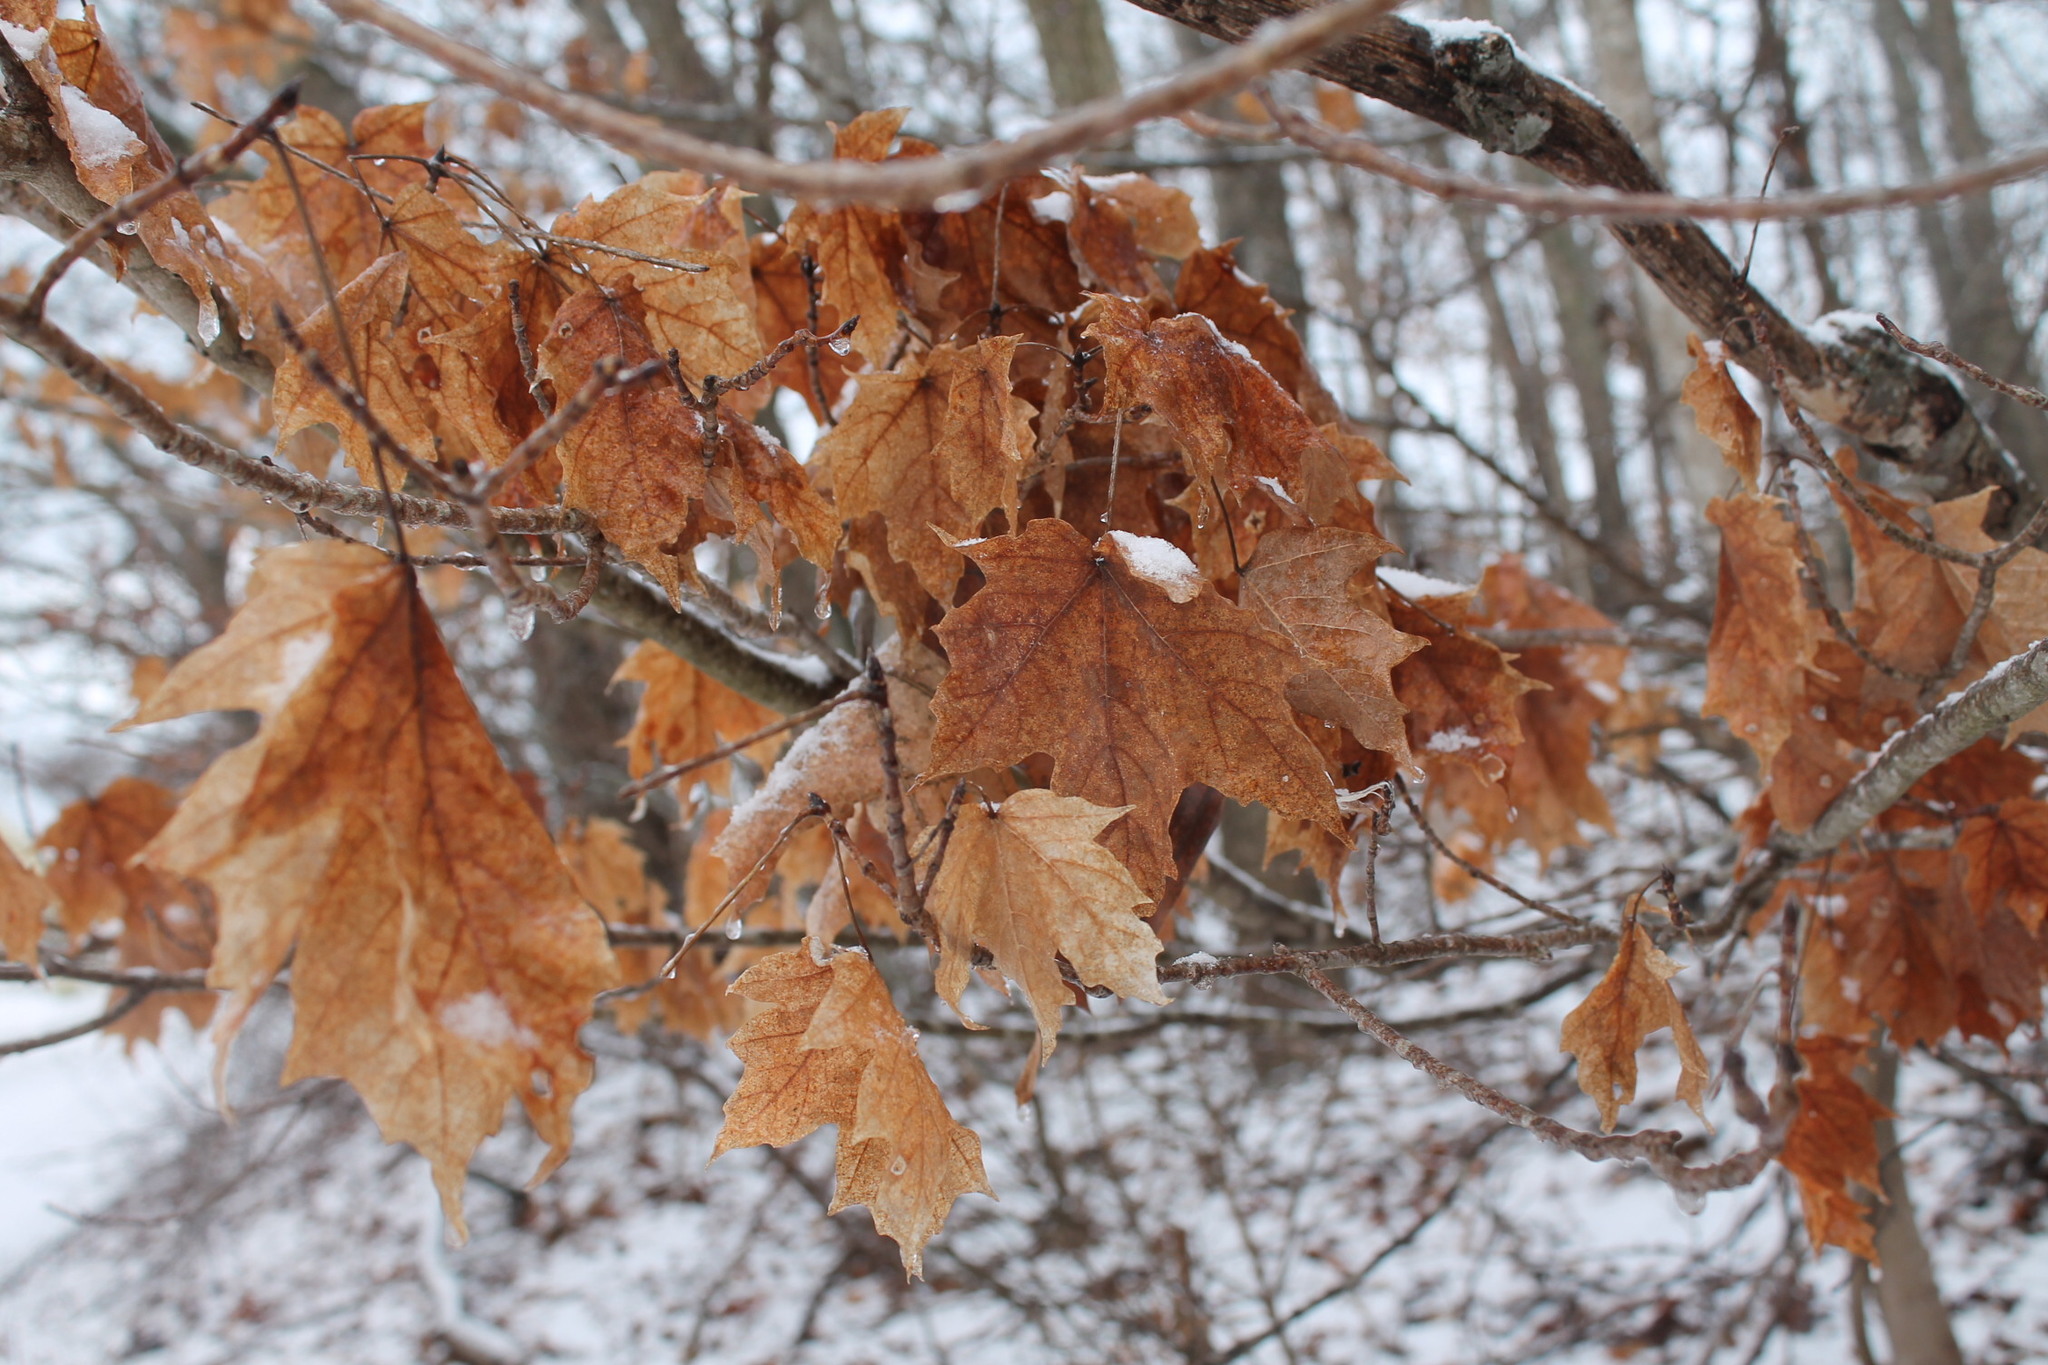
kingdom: Plantae
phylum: Tracheophyta
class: Magnoliopsida
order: Sapindales
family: Sapindaceae
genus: Acer
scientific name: Acer saccharum
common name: Sugar maple
